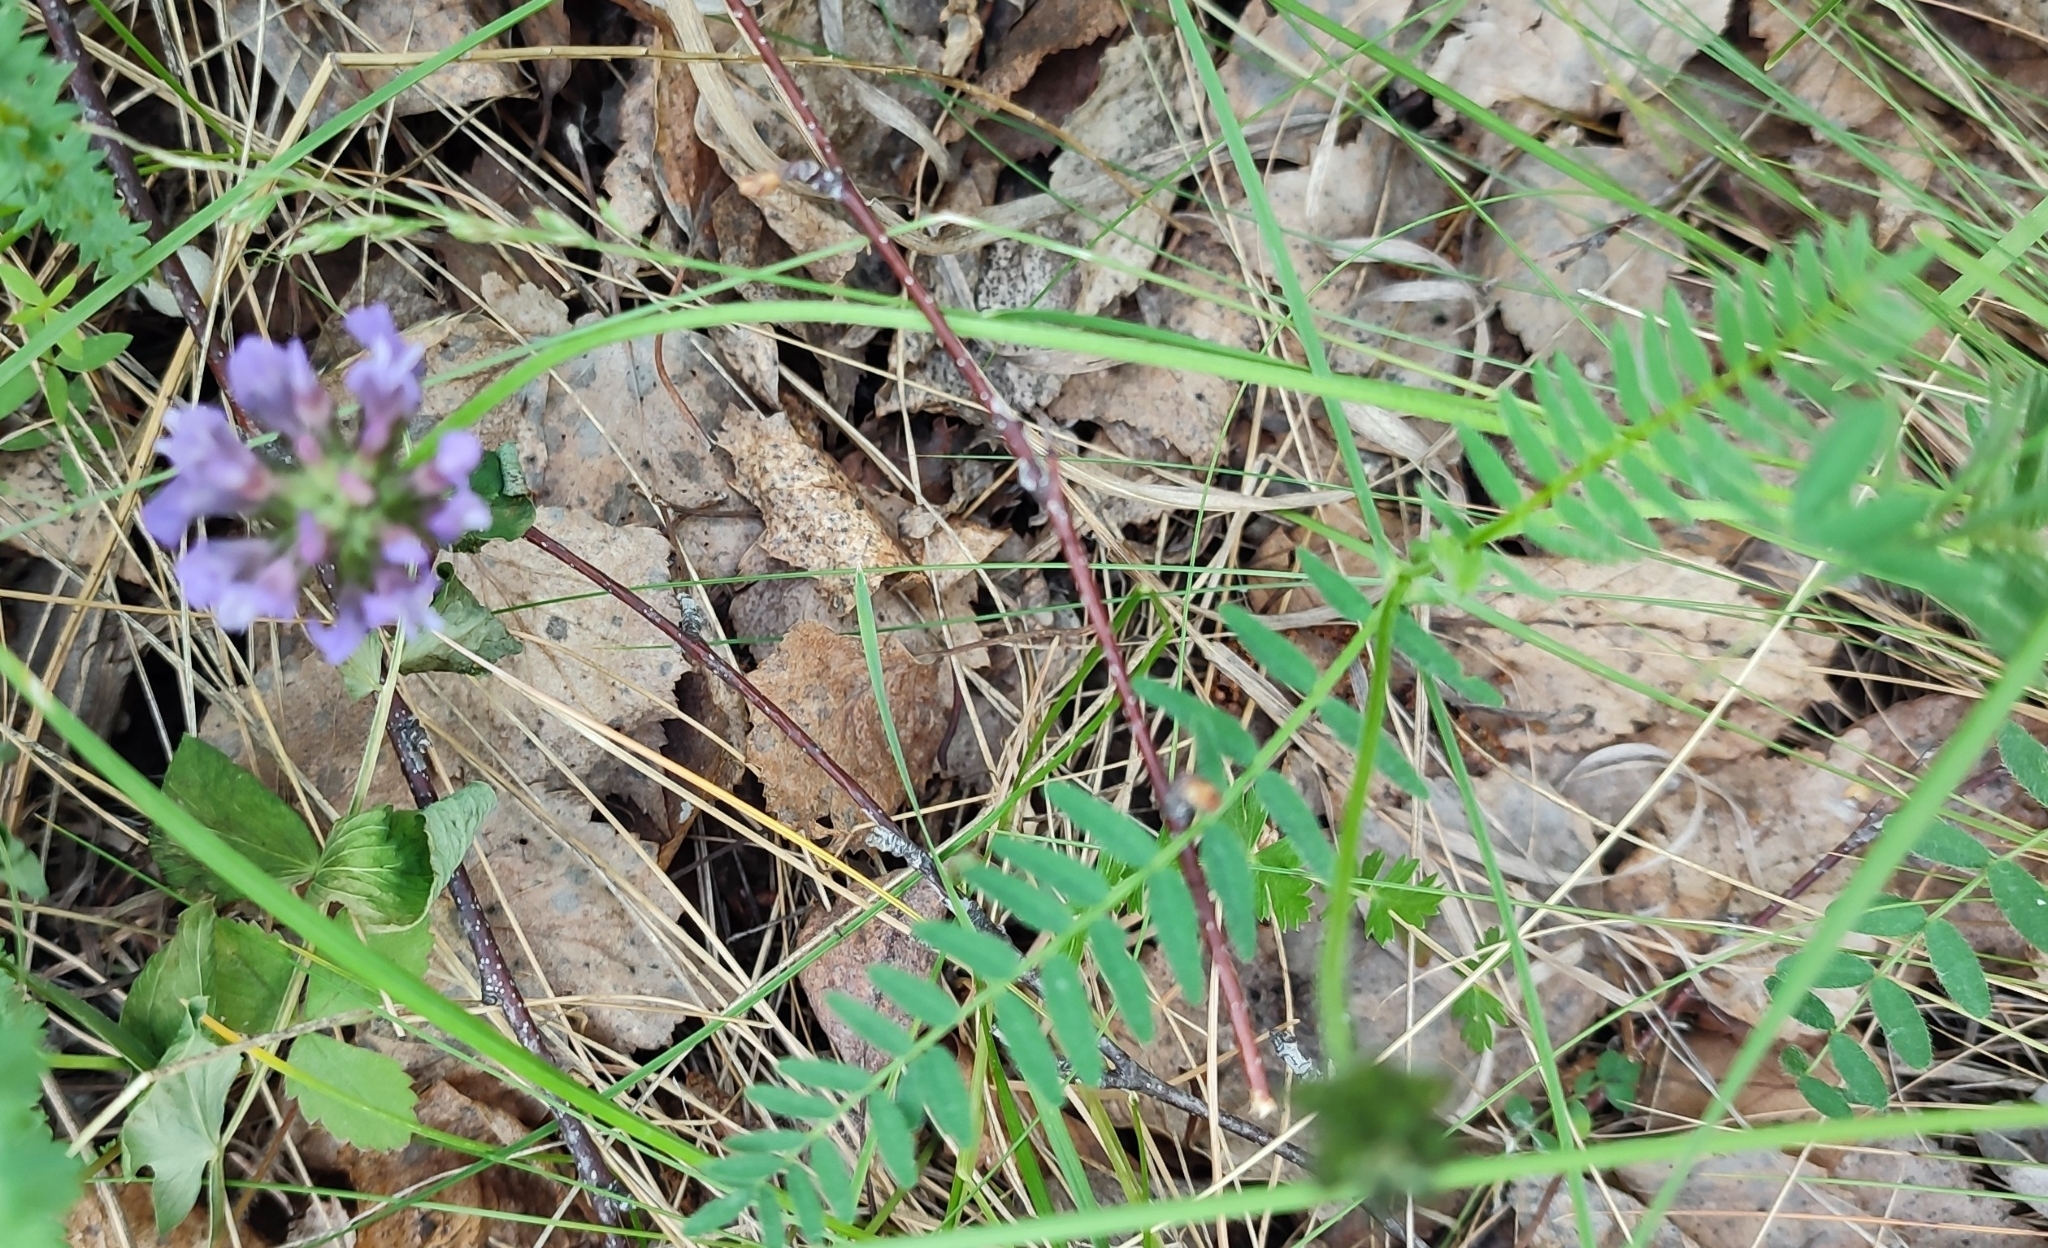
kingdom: Plantae
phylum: Tracheophyta
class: Magnoliopsida
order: Fabales
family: Fabaceae
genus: Astragalus
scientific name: Astragalus danicus
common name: Purple milk-vetch
